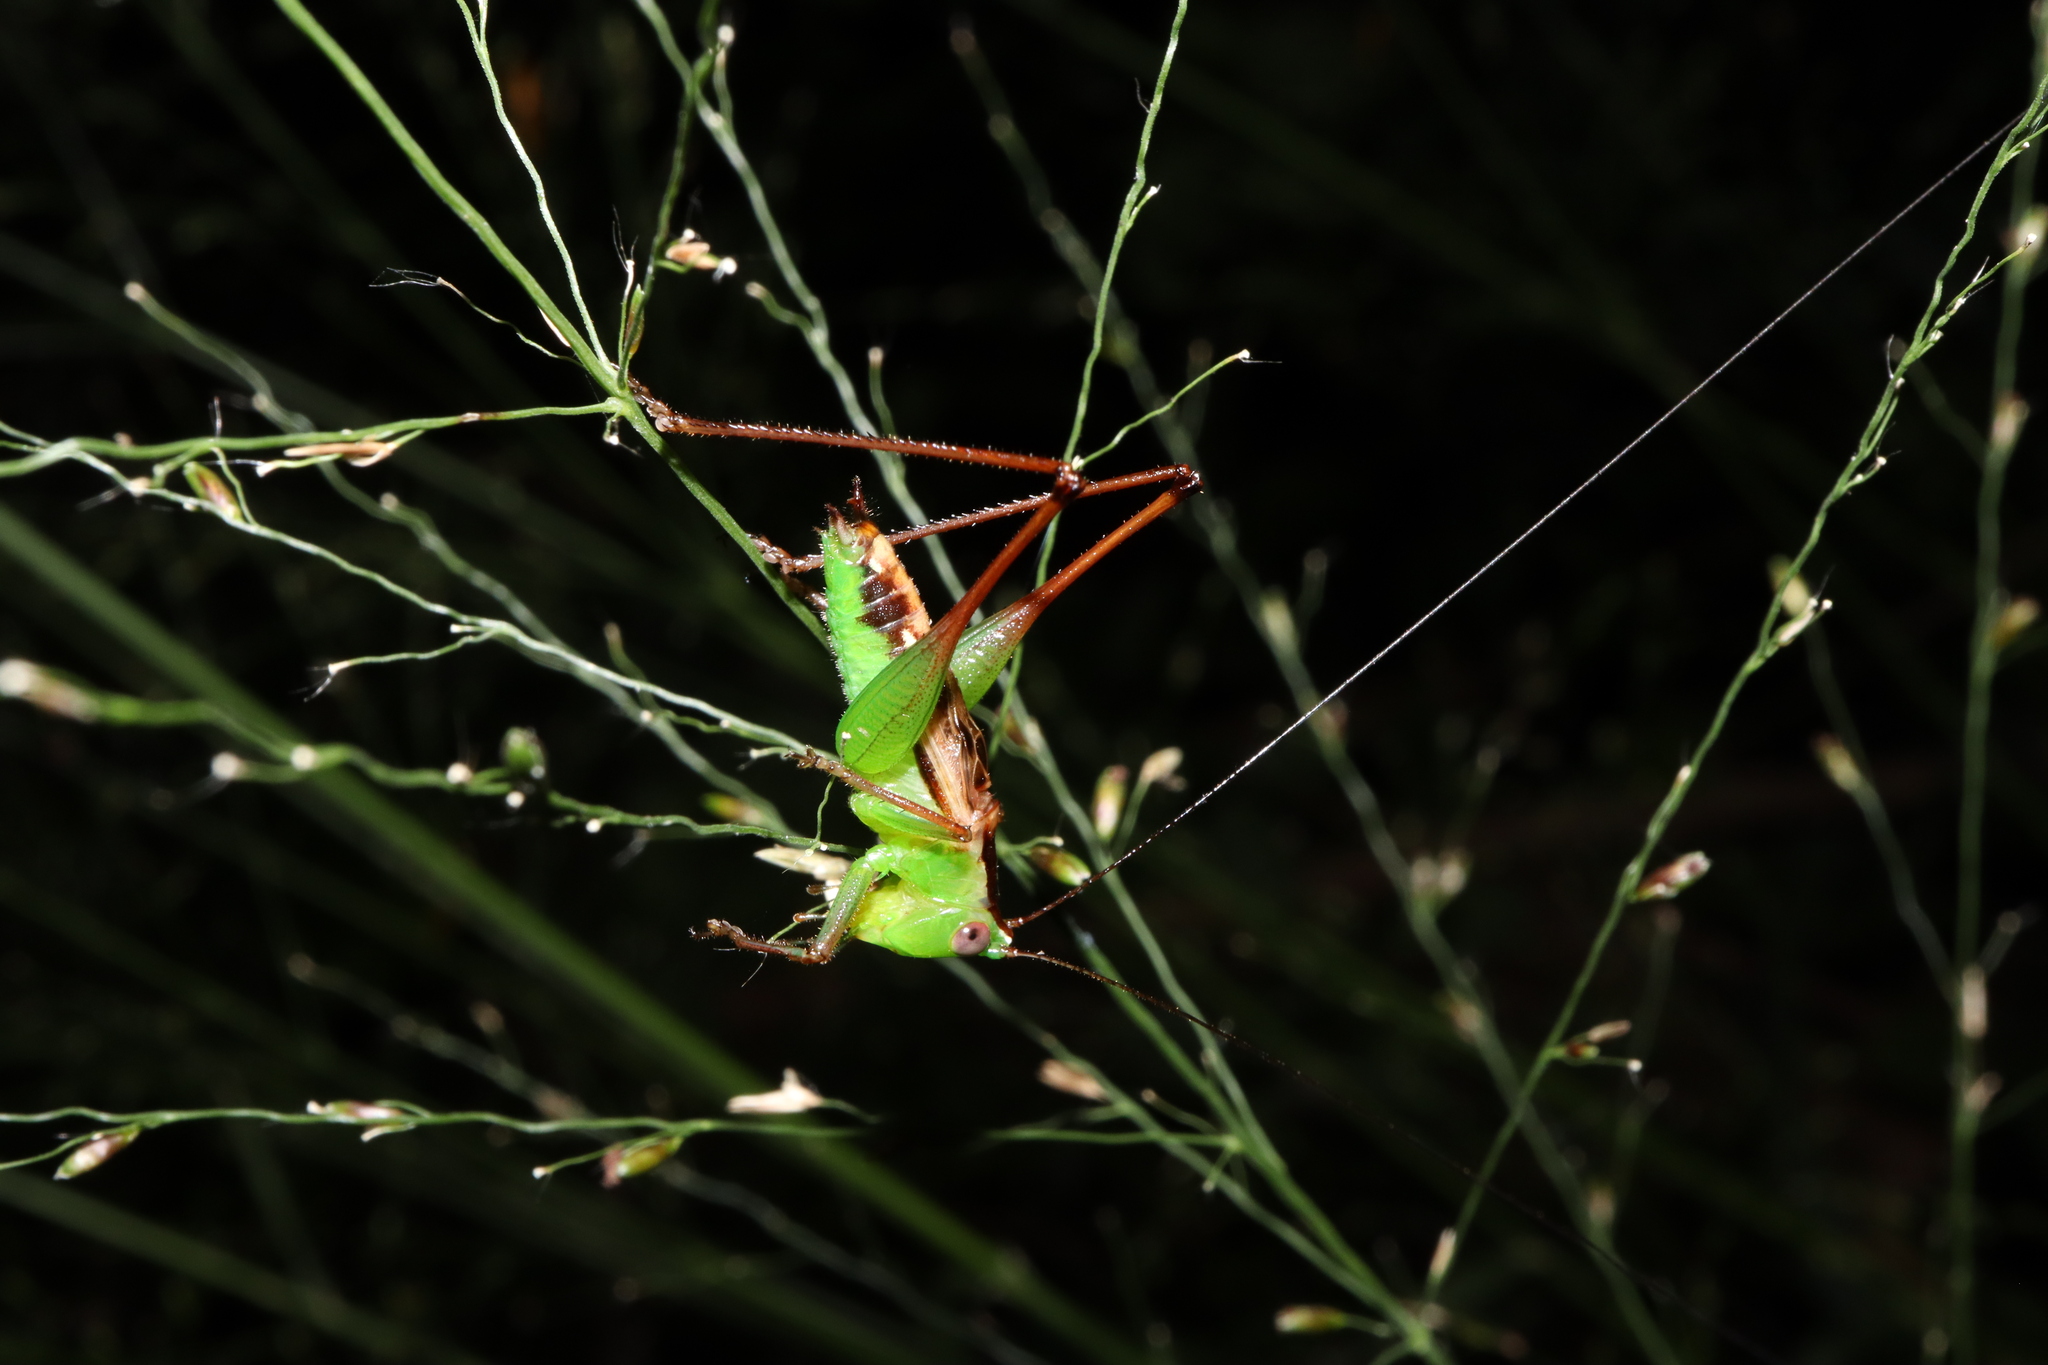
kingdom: Animalia
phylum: Arthropoda
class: Insecta
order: Orthoptera
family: Tettigoniidae
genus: Conocephalus
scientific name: Conocephalus semivittatus
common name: Blackish meadow katydid
